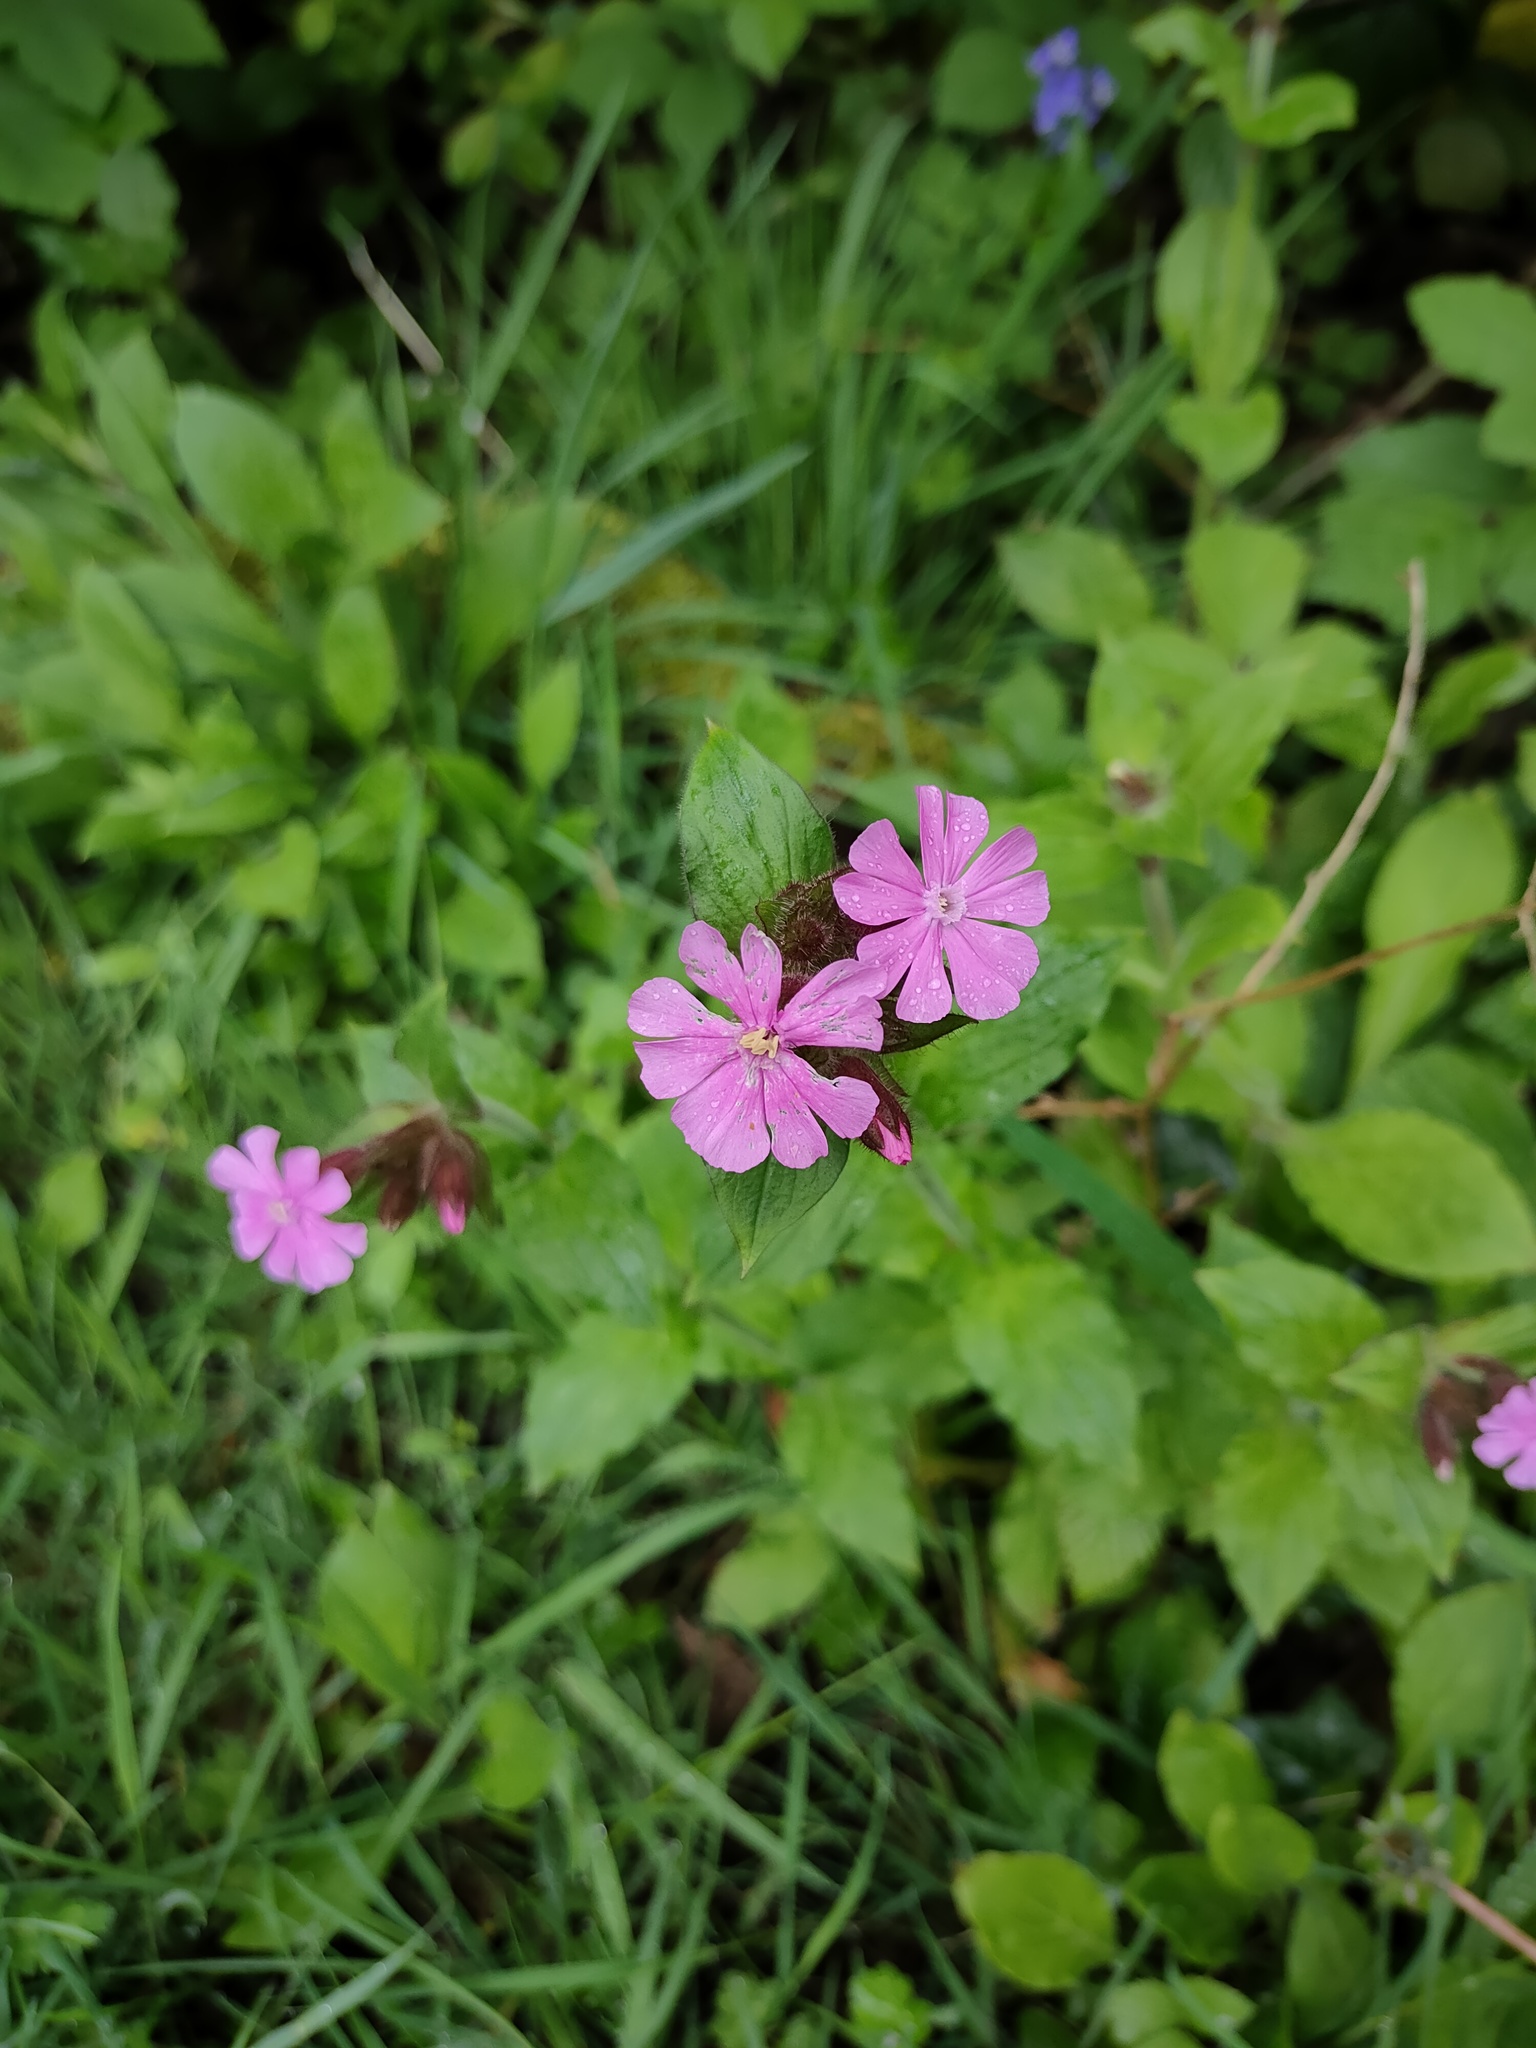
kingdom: Plantae
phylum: Tracheophyta
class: Magnoliopsida
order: Caryophyllales
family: Caryophyllaceae
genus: Silene
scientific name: Silene dioica
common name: Red campion
